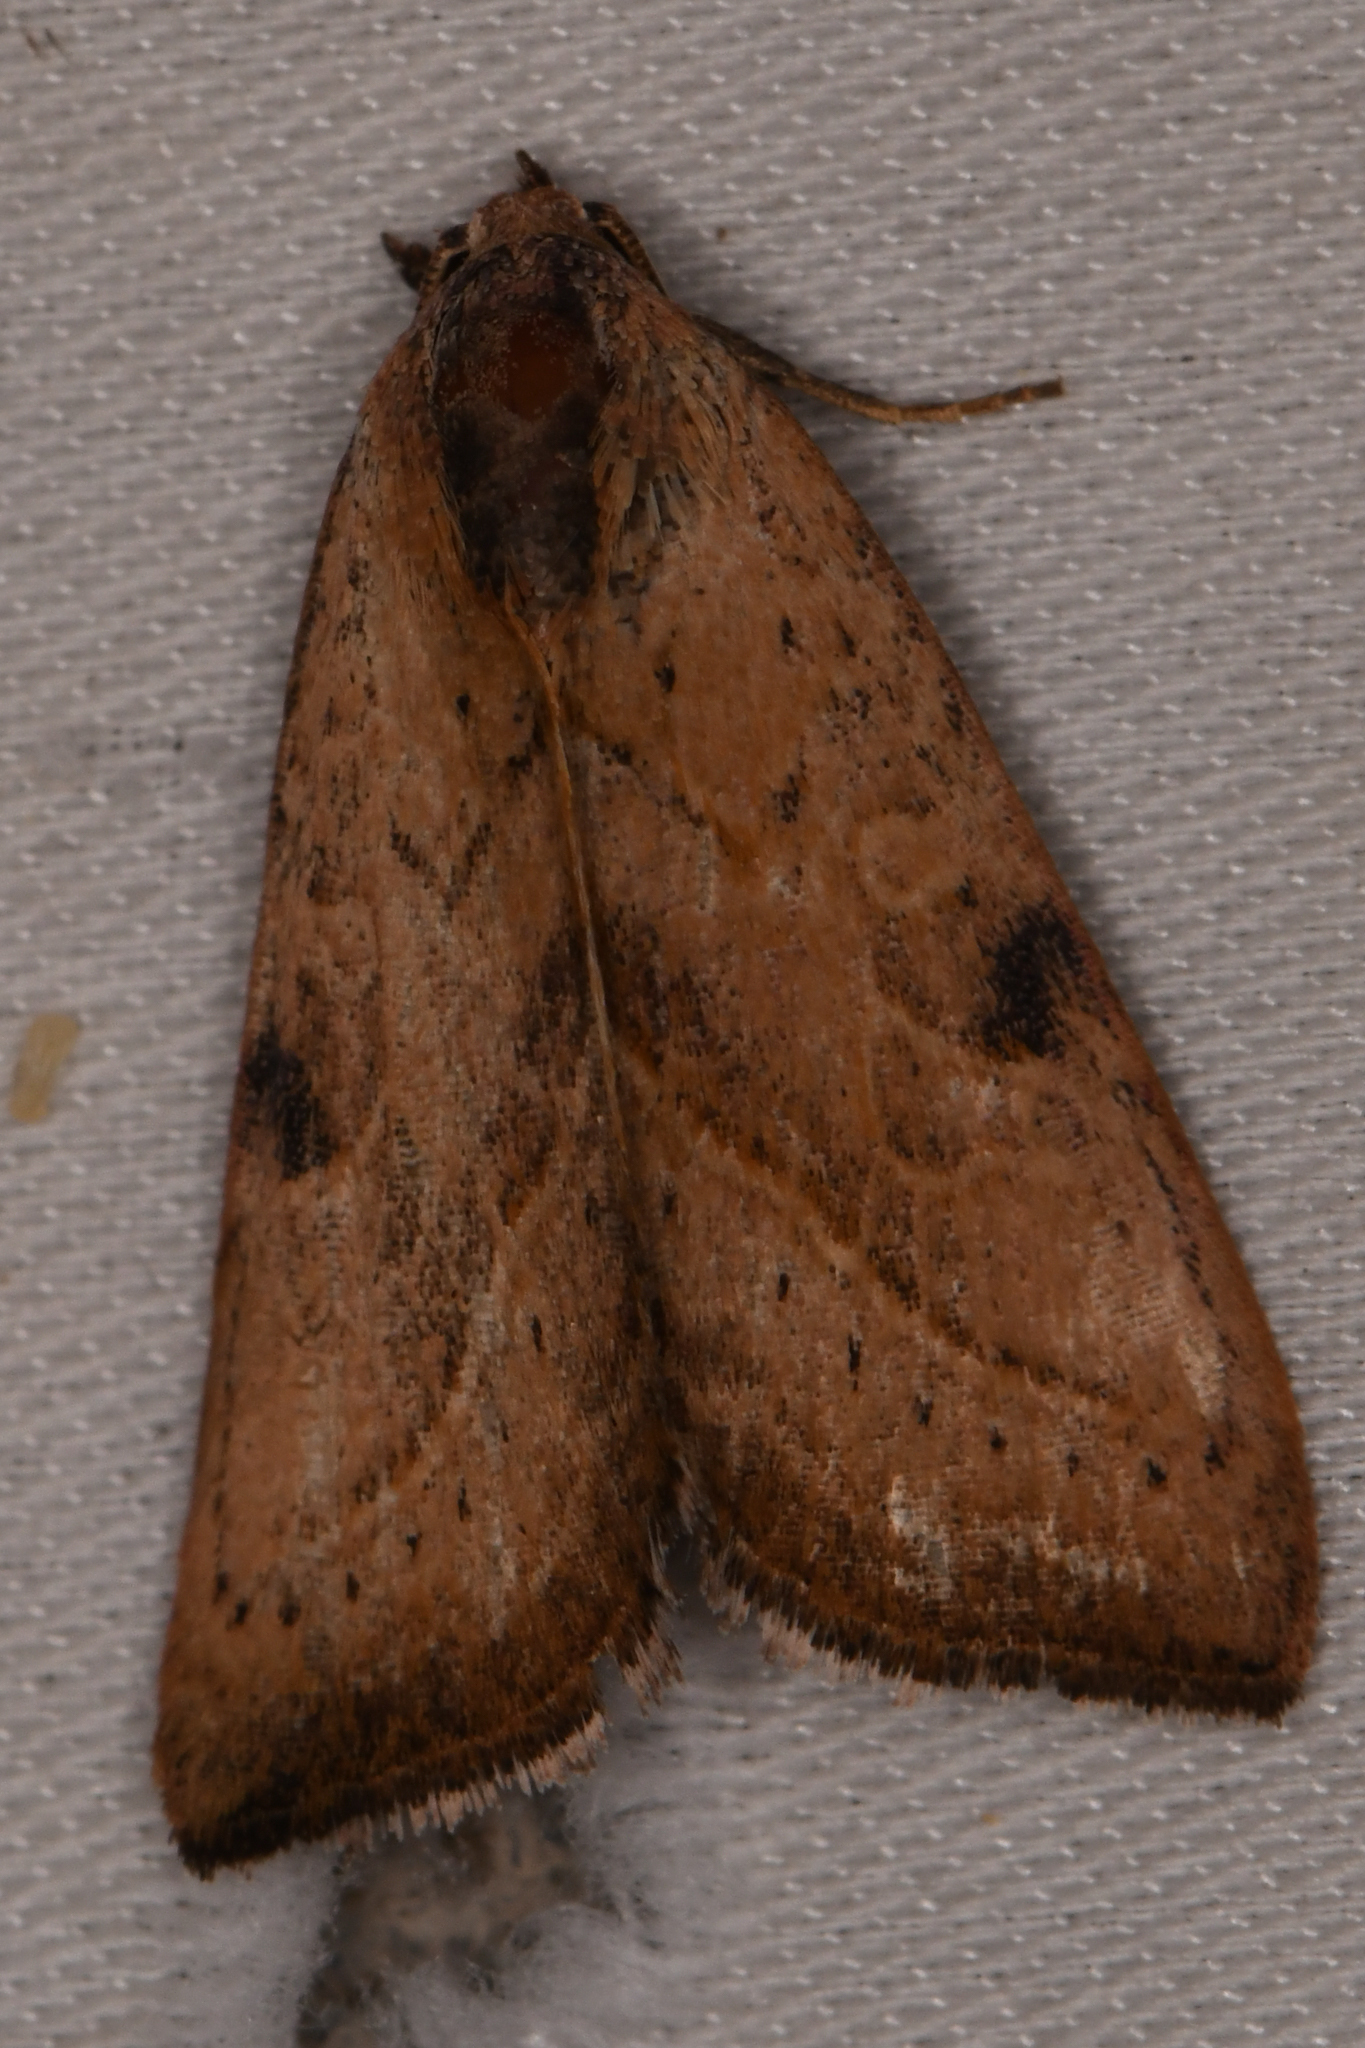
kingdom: Animalia
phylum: Arthropoda
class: Insecta
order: Lepidoptera
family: Noctuidae
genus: Galgula
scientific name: Galgula partita
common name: Wedgeling
